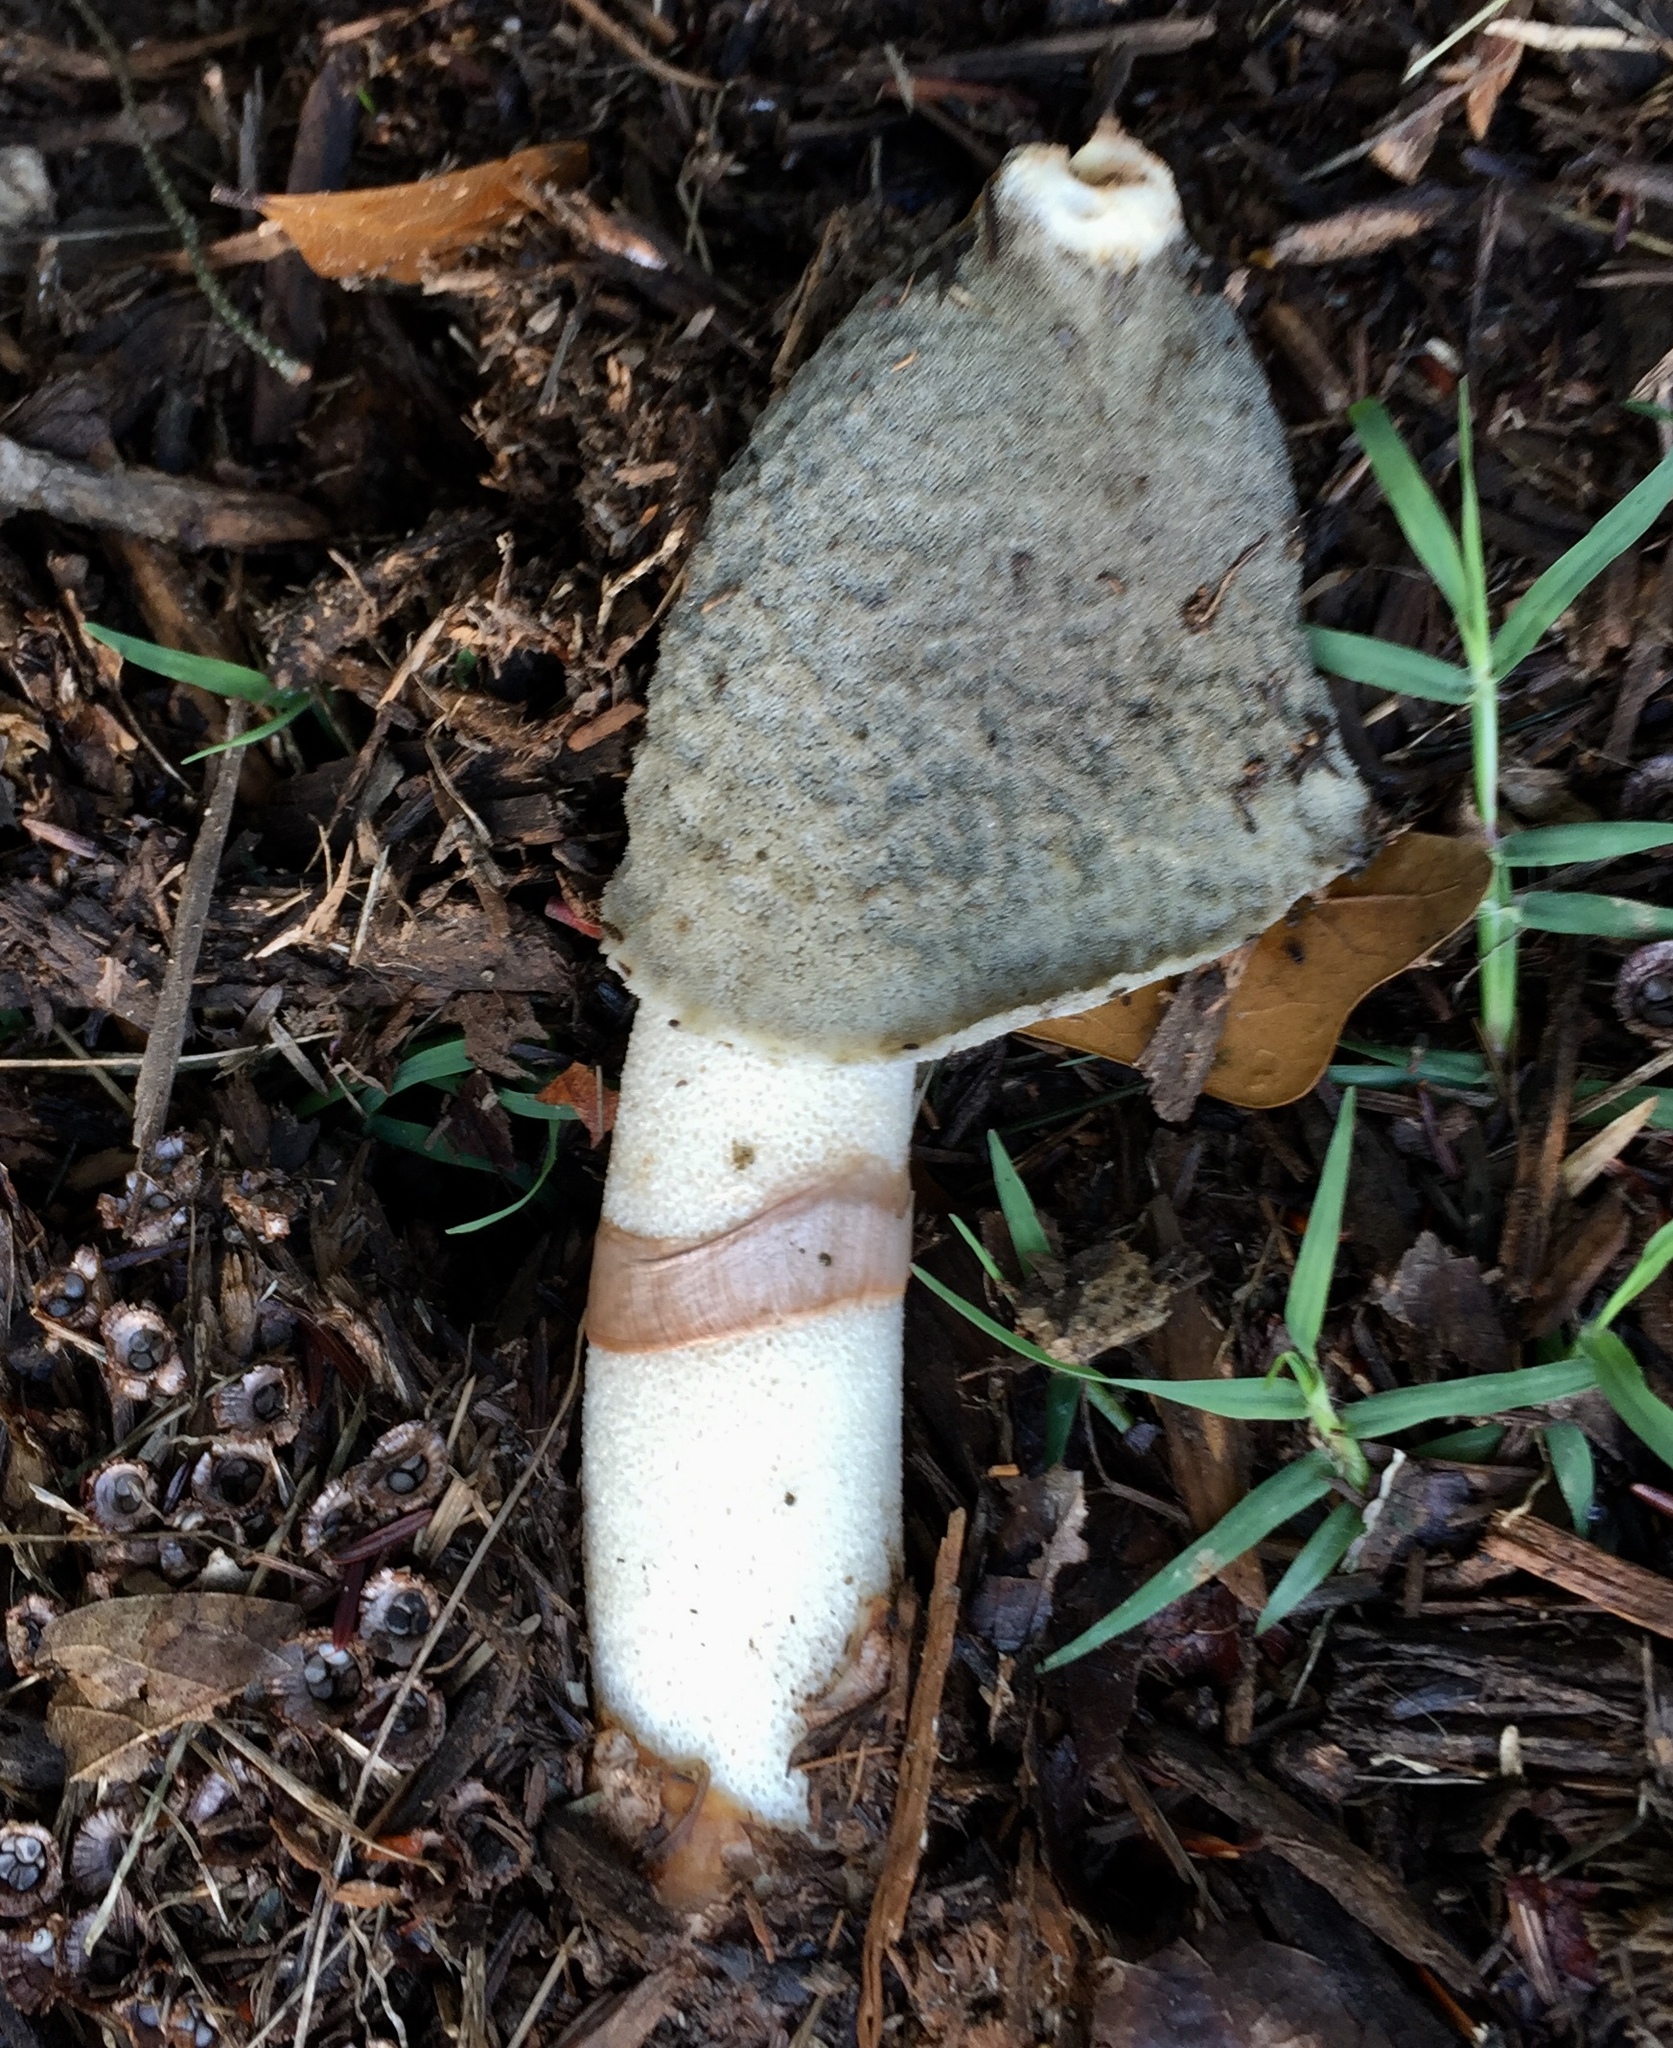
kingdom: Fungi
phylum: Basidiomycota
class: Agaricomycetes
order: Phallales
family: Phallaceae
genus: Phallus
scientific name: Phallus ravenelii
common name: Ravenel's stinkhorn
